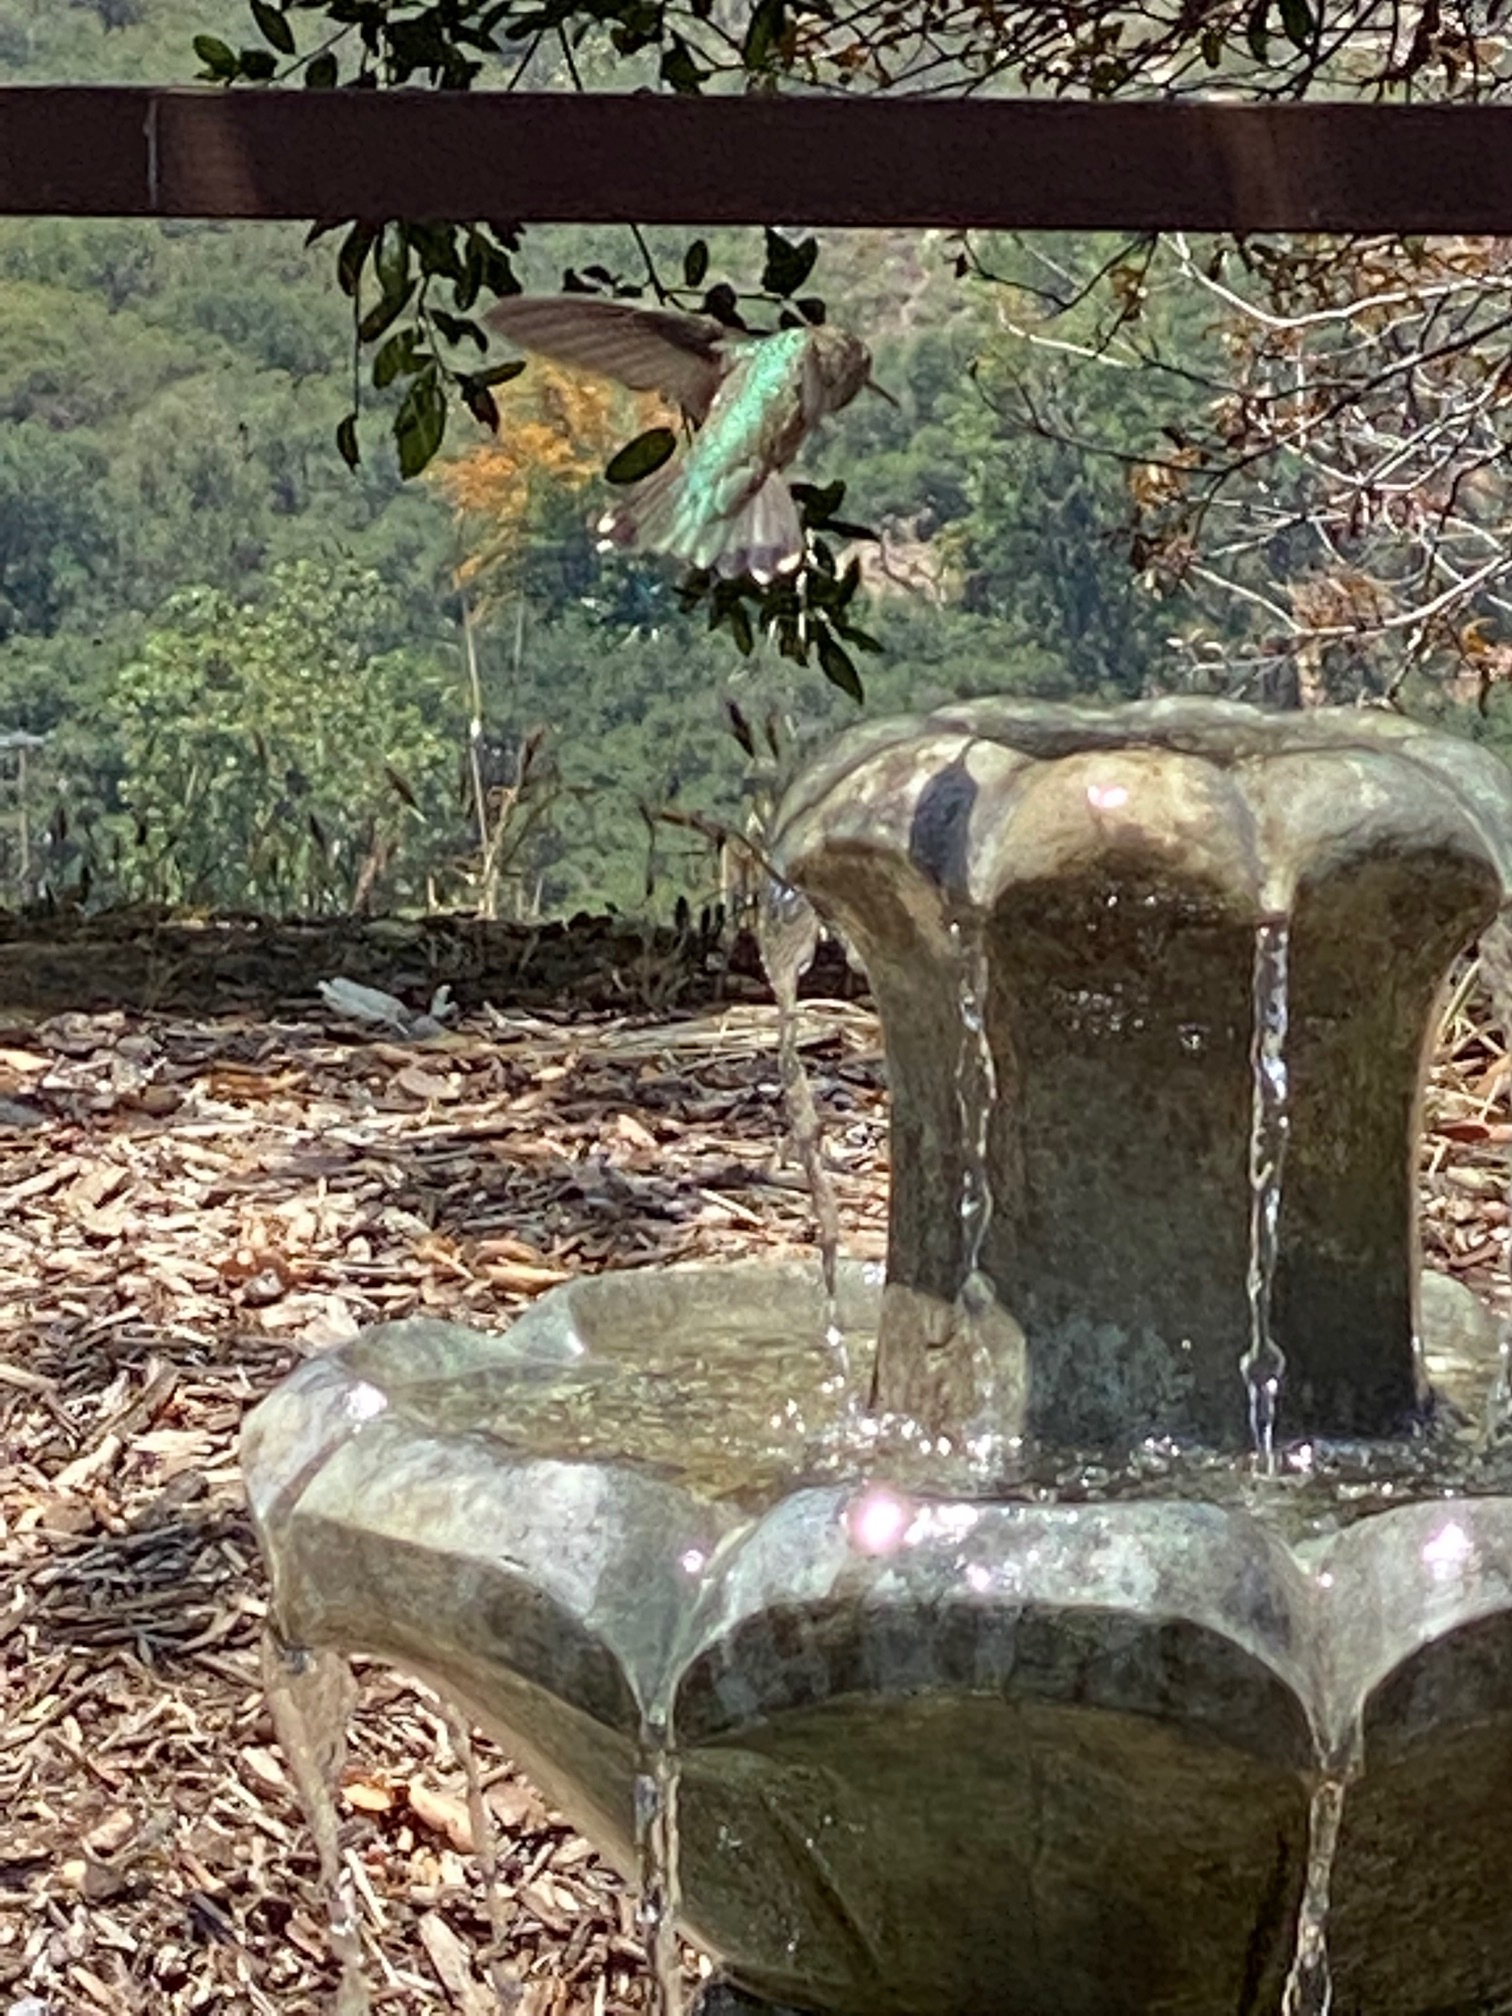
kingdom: Animalia
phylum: Chordata
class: Aves
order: Apodiformes
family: Trochilidae
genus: Calypte
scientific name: Calypte anna
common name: Anna's hummingbird
